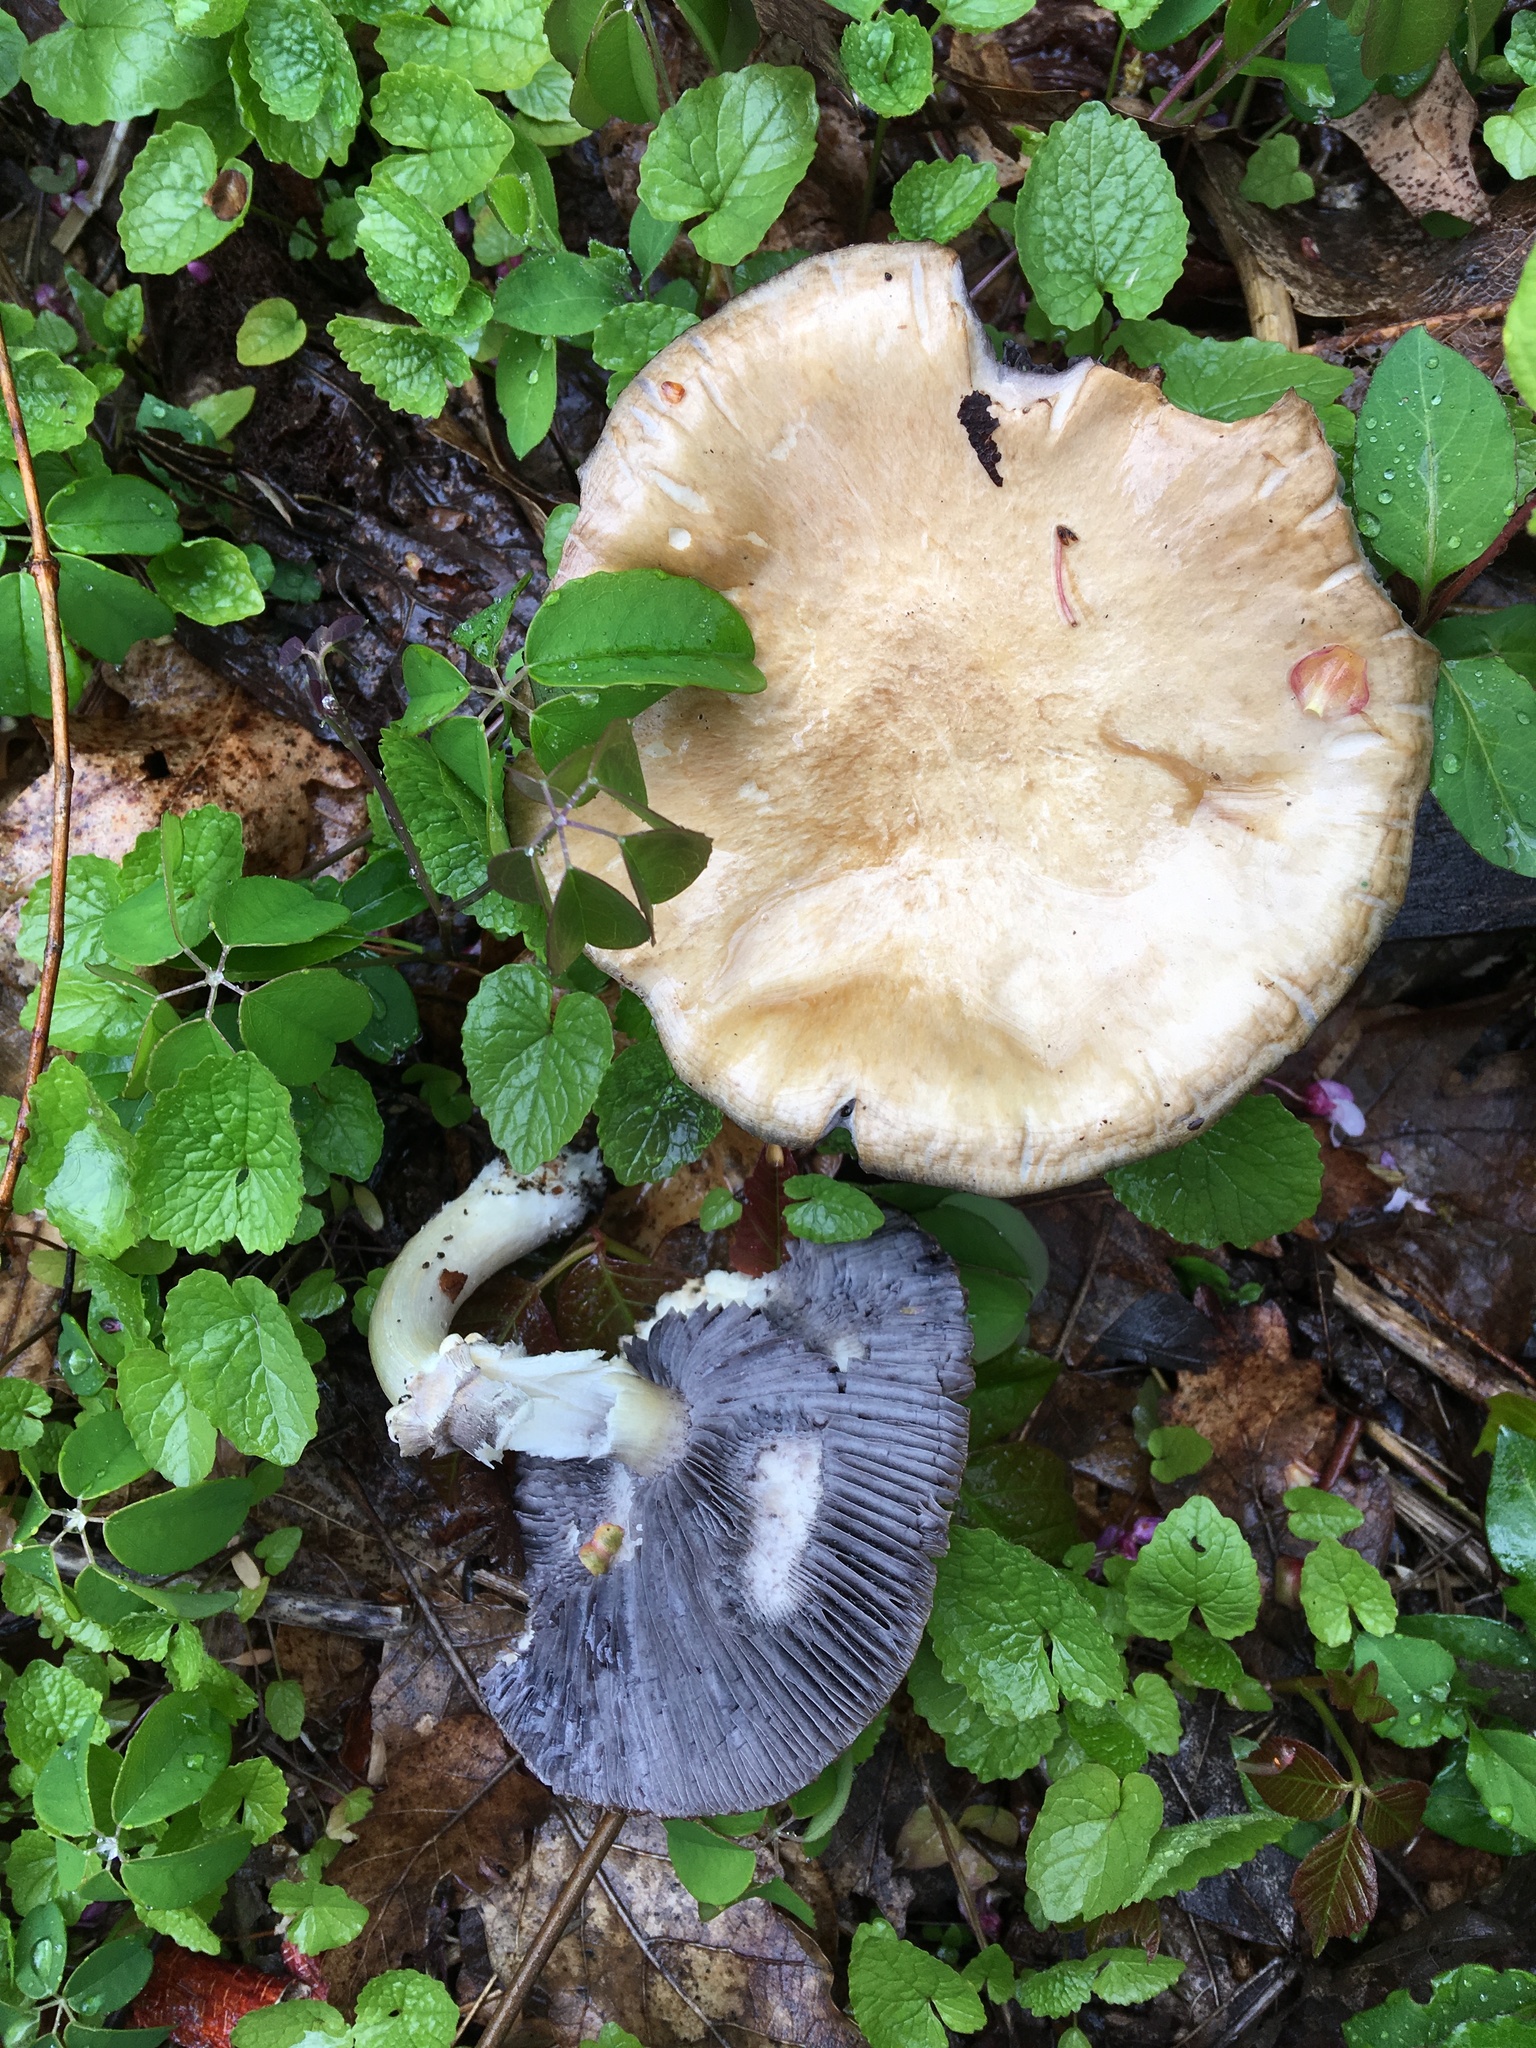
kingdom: Fungi
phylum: Basidiomycota
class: Agaricomycetes
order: Agaricales
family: Strophariaceae
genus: Stropharia
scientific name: Stropharia rugosoannulata
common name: Wine roundhead
